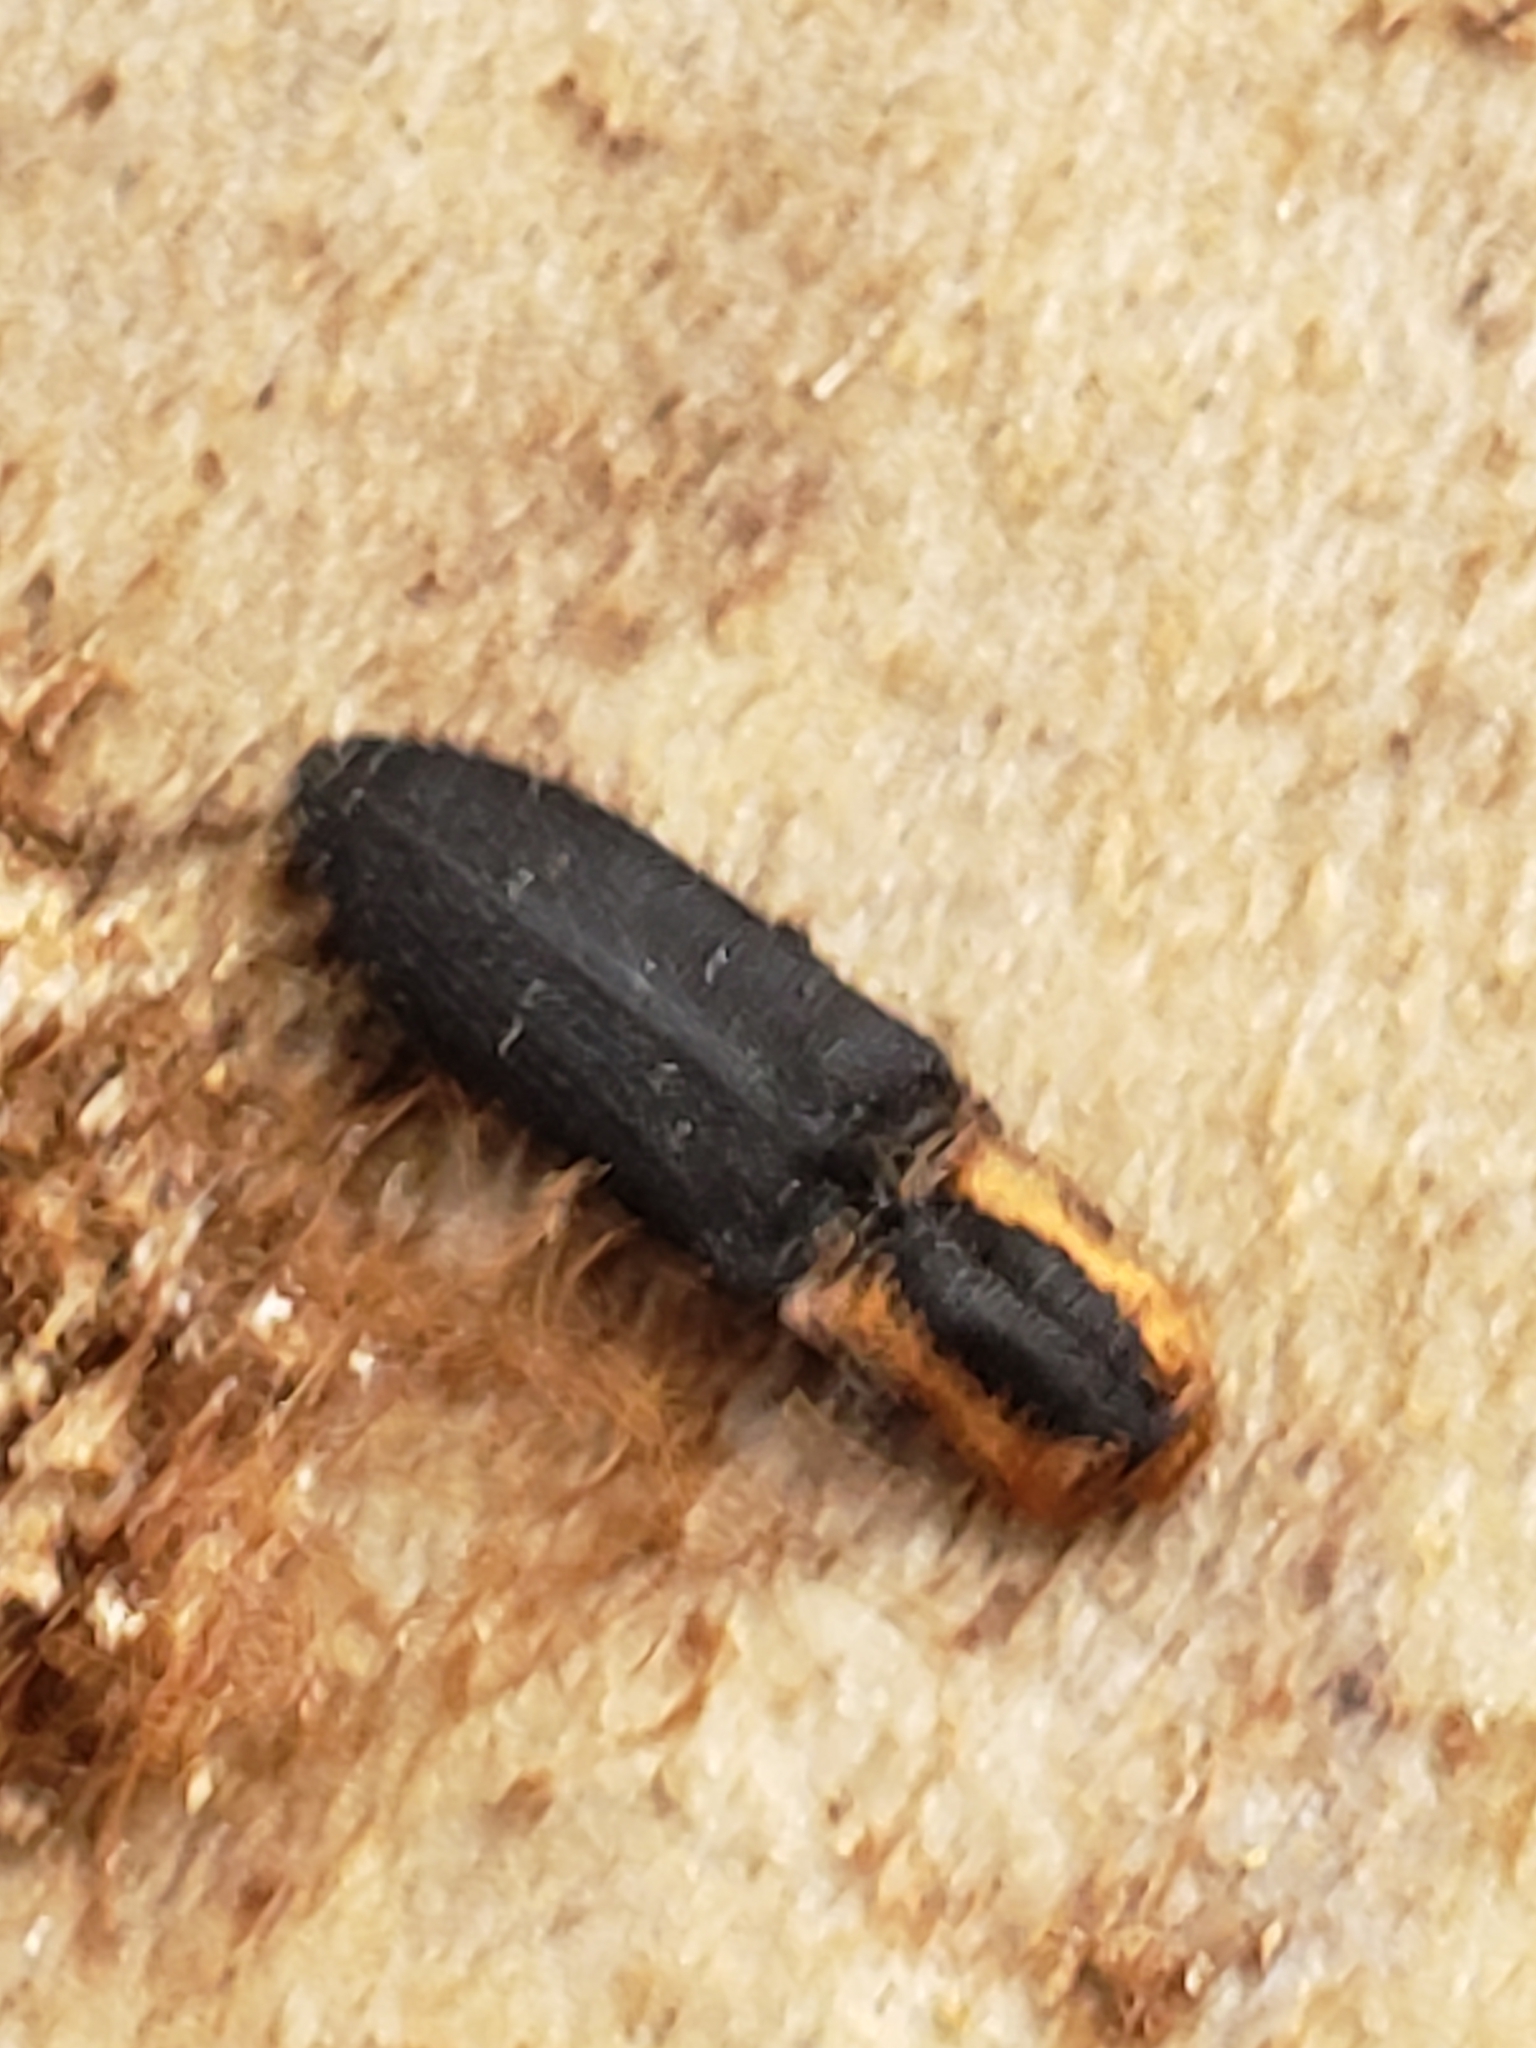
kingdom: Animalia
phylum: Arthropoda
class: Insecta
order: Coleoptera
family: Elateridae
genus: Lacon
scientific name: Lacon discoideus
